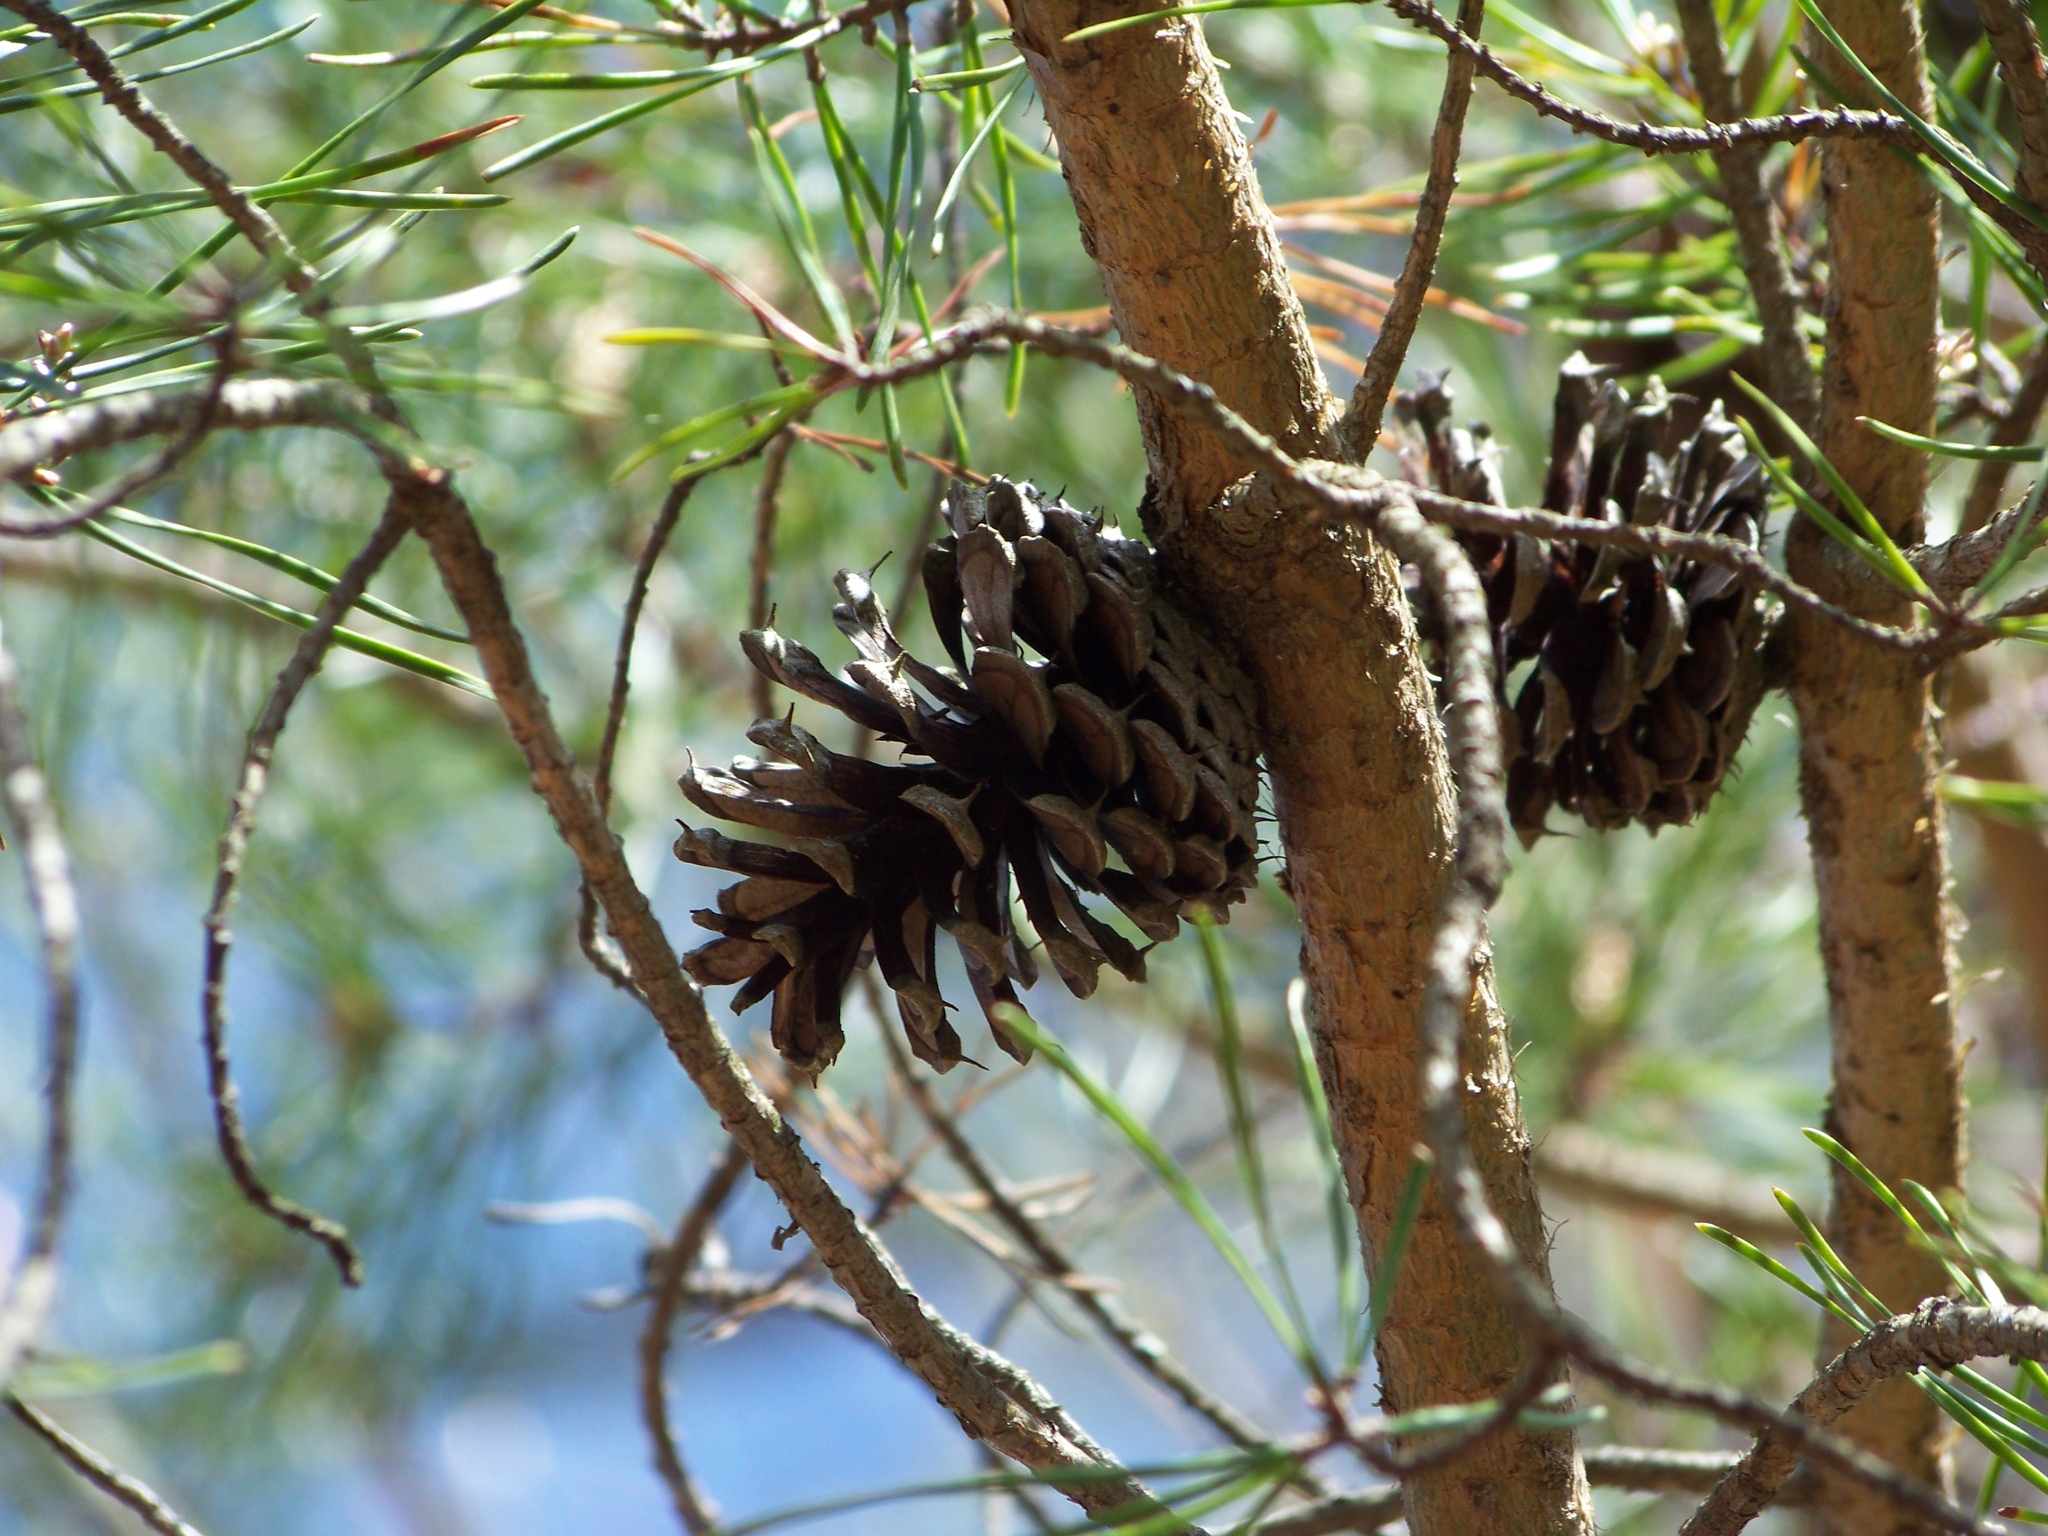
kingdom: Plantae
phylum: Tracheophyta
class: Pinopsida
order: Pinales
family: Pinaceae
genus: Pinus
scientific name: Pinus virginiana
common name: Scrub pine
